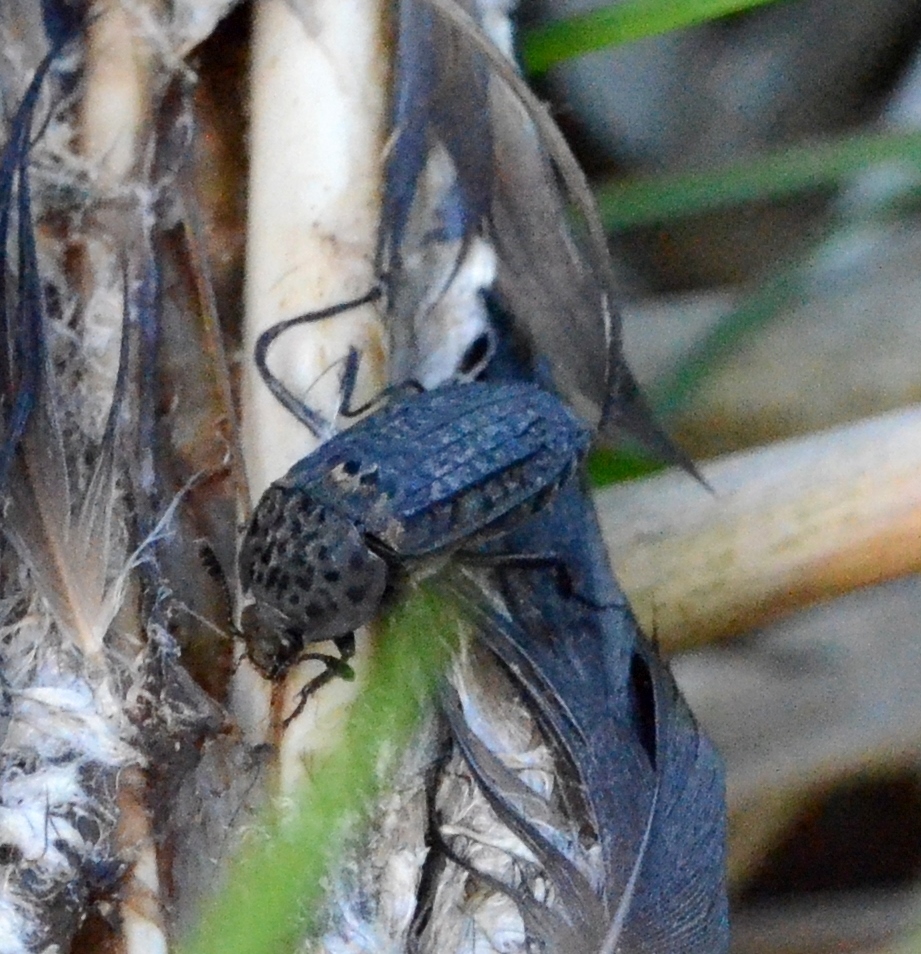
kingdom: Animalia
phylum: Arthropoda
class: Insecta
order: Coleoptera
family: Staphylinidae
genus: Thanatophilus
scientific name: Thanatophilus rugosus
